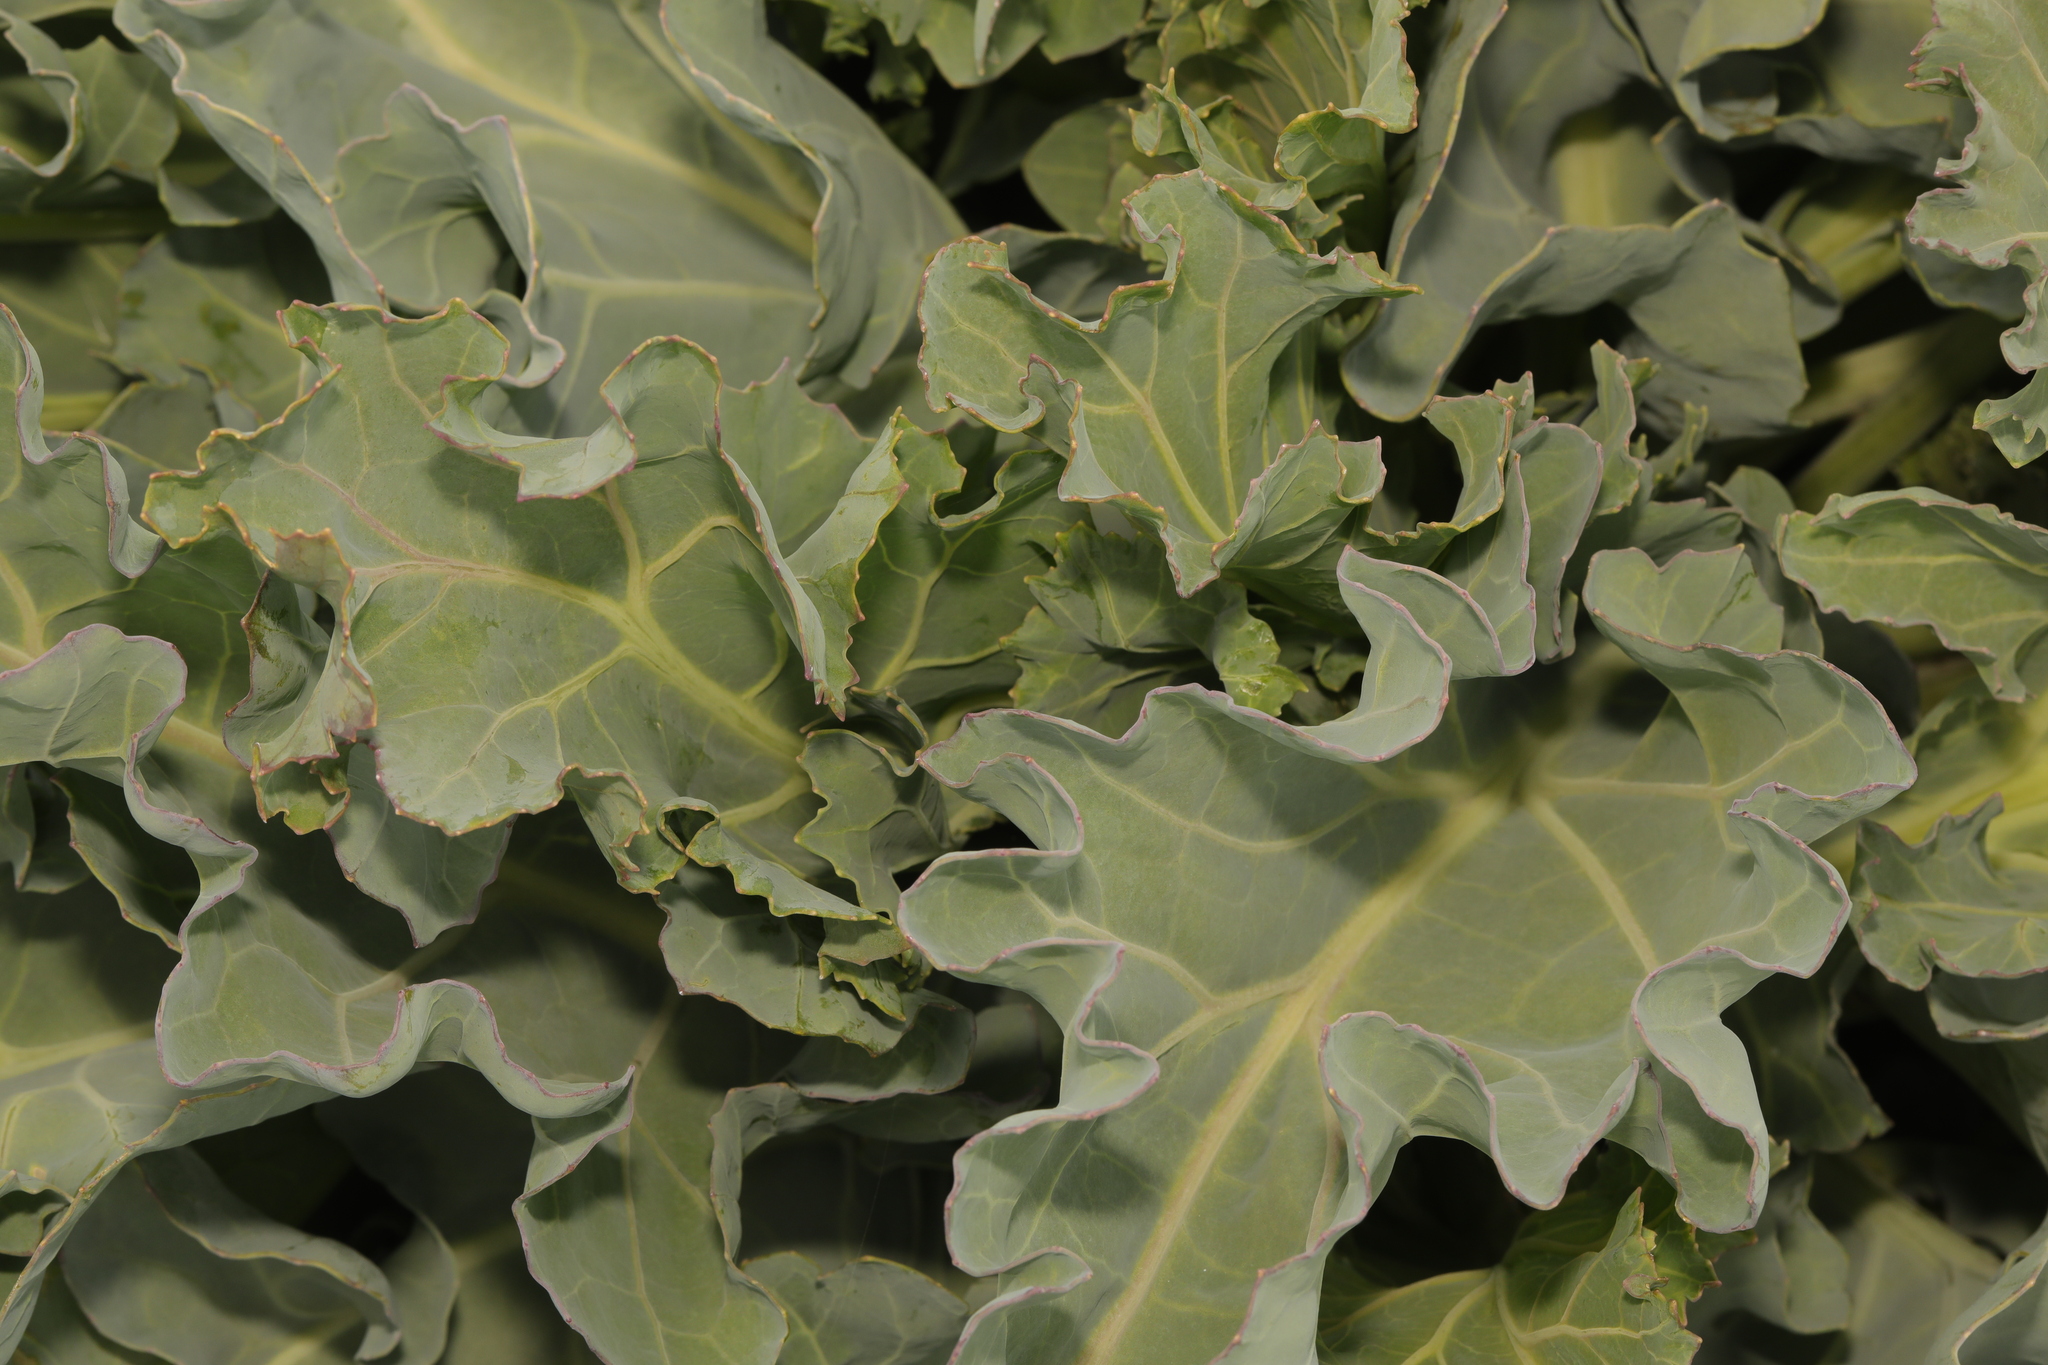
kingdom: Plantae
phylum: Tracheophyta
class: Magnoliopsida
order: Brassicales
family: Brassicaceae
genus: Crambe
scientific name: Crambe maritima
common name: Sea-kale
